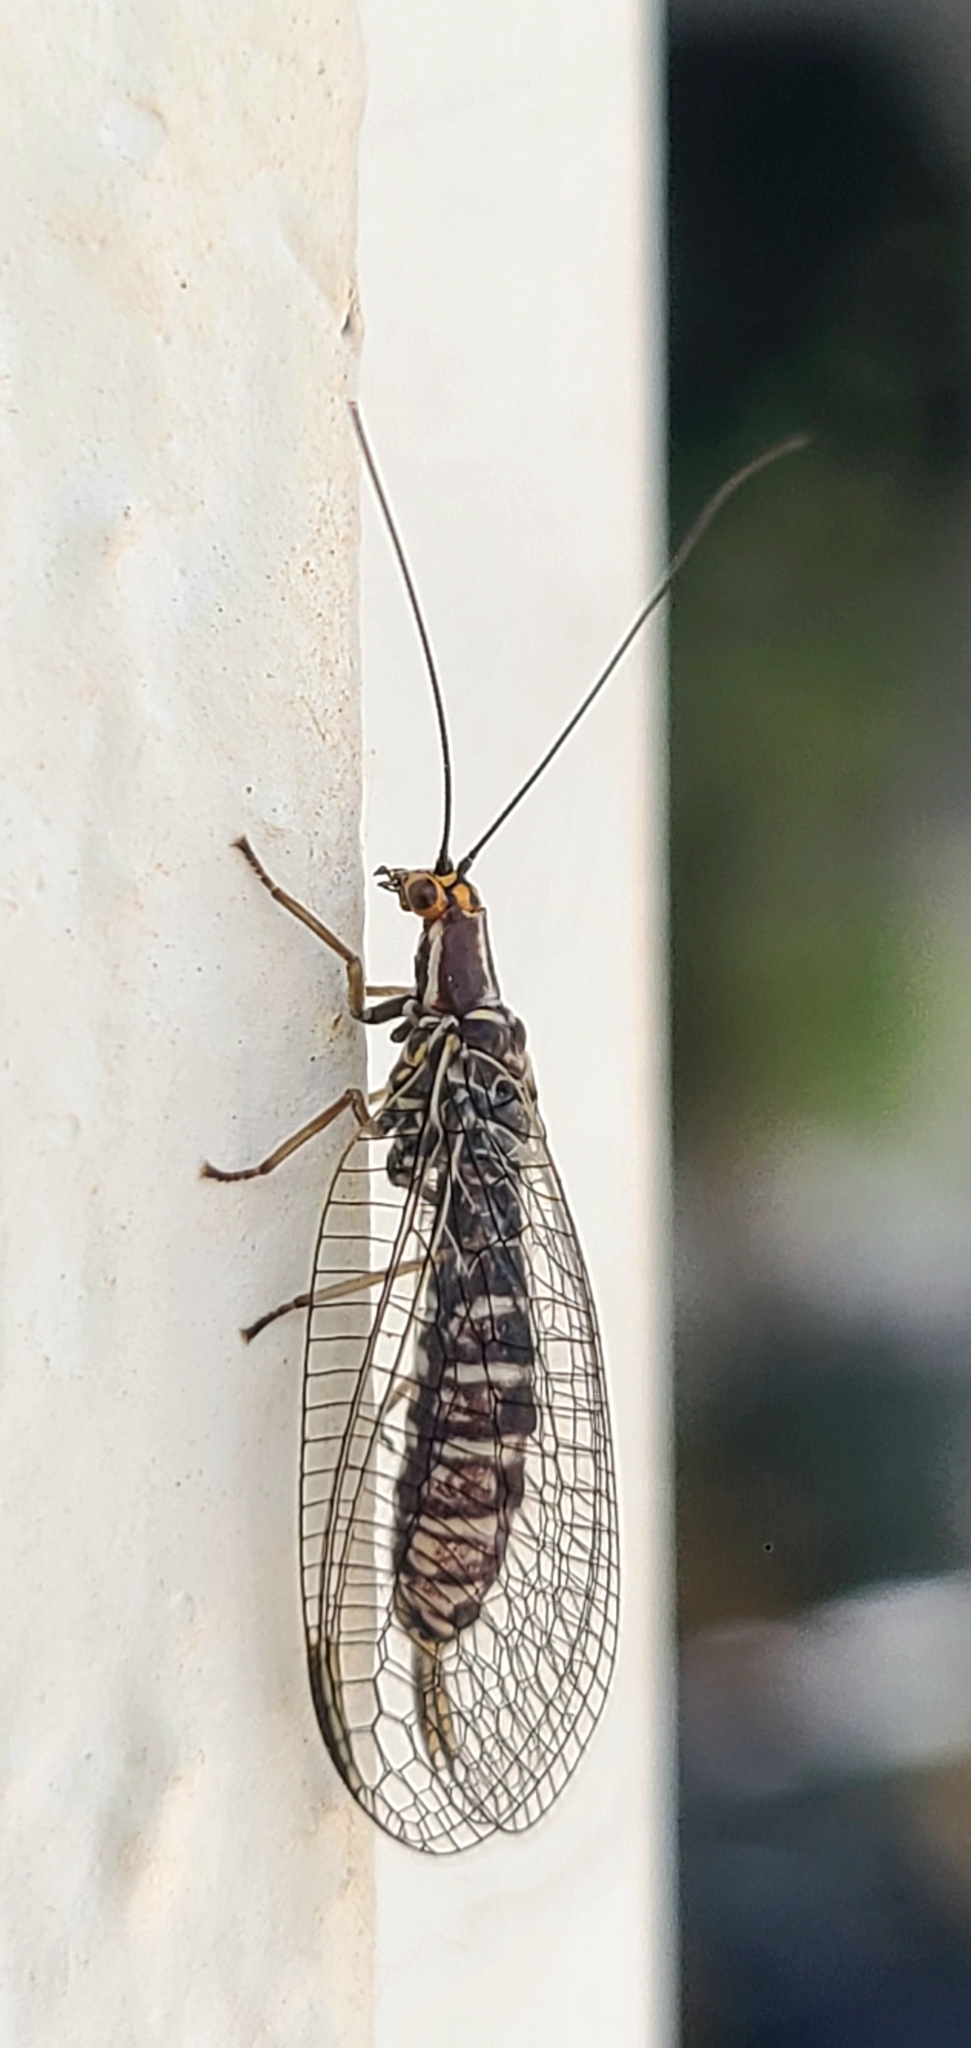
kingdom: Animalia
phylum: Arthropoda
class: Insecta
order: Neuroptera
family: Chrysopidae
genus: Nothochrysa
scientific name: Nothochrysa californica
